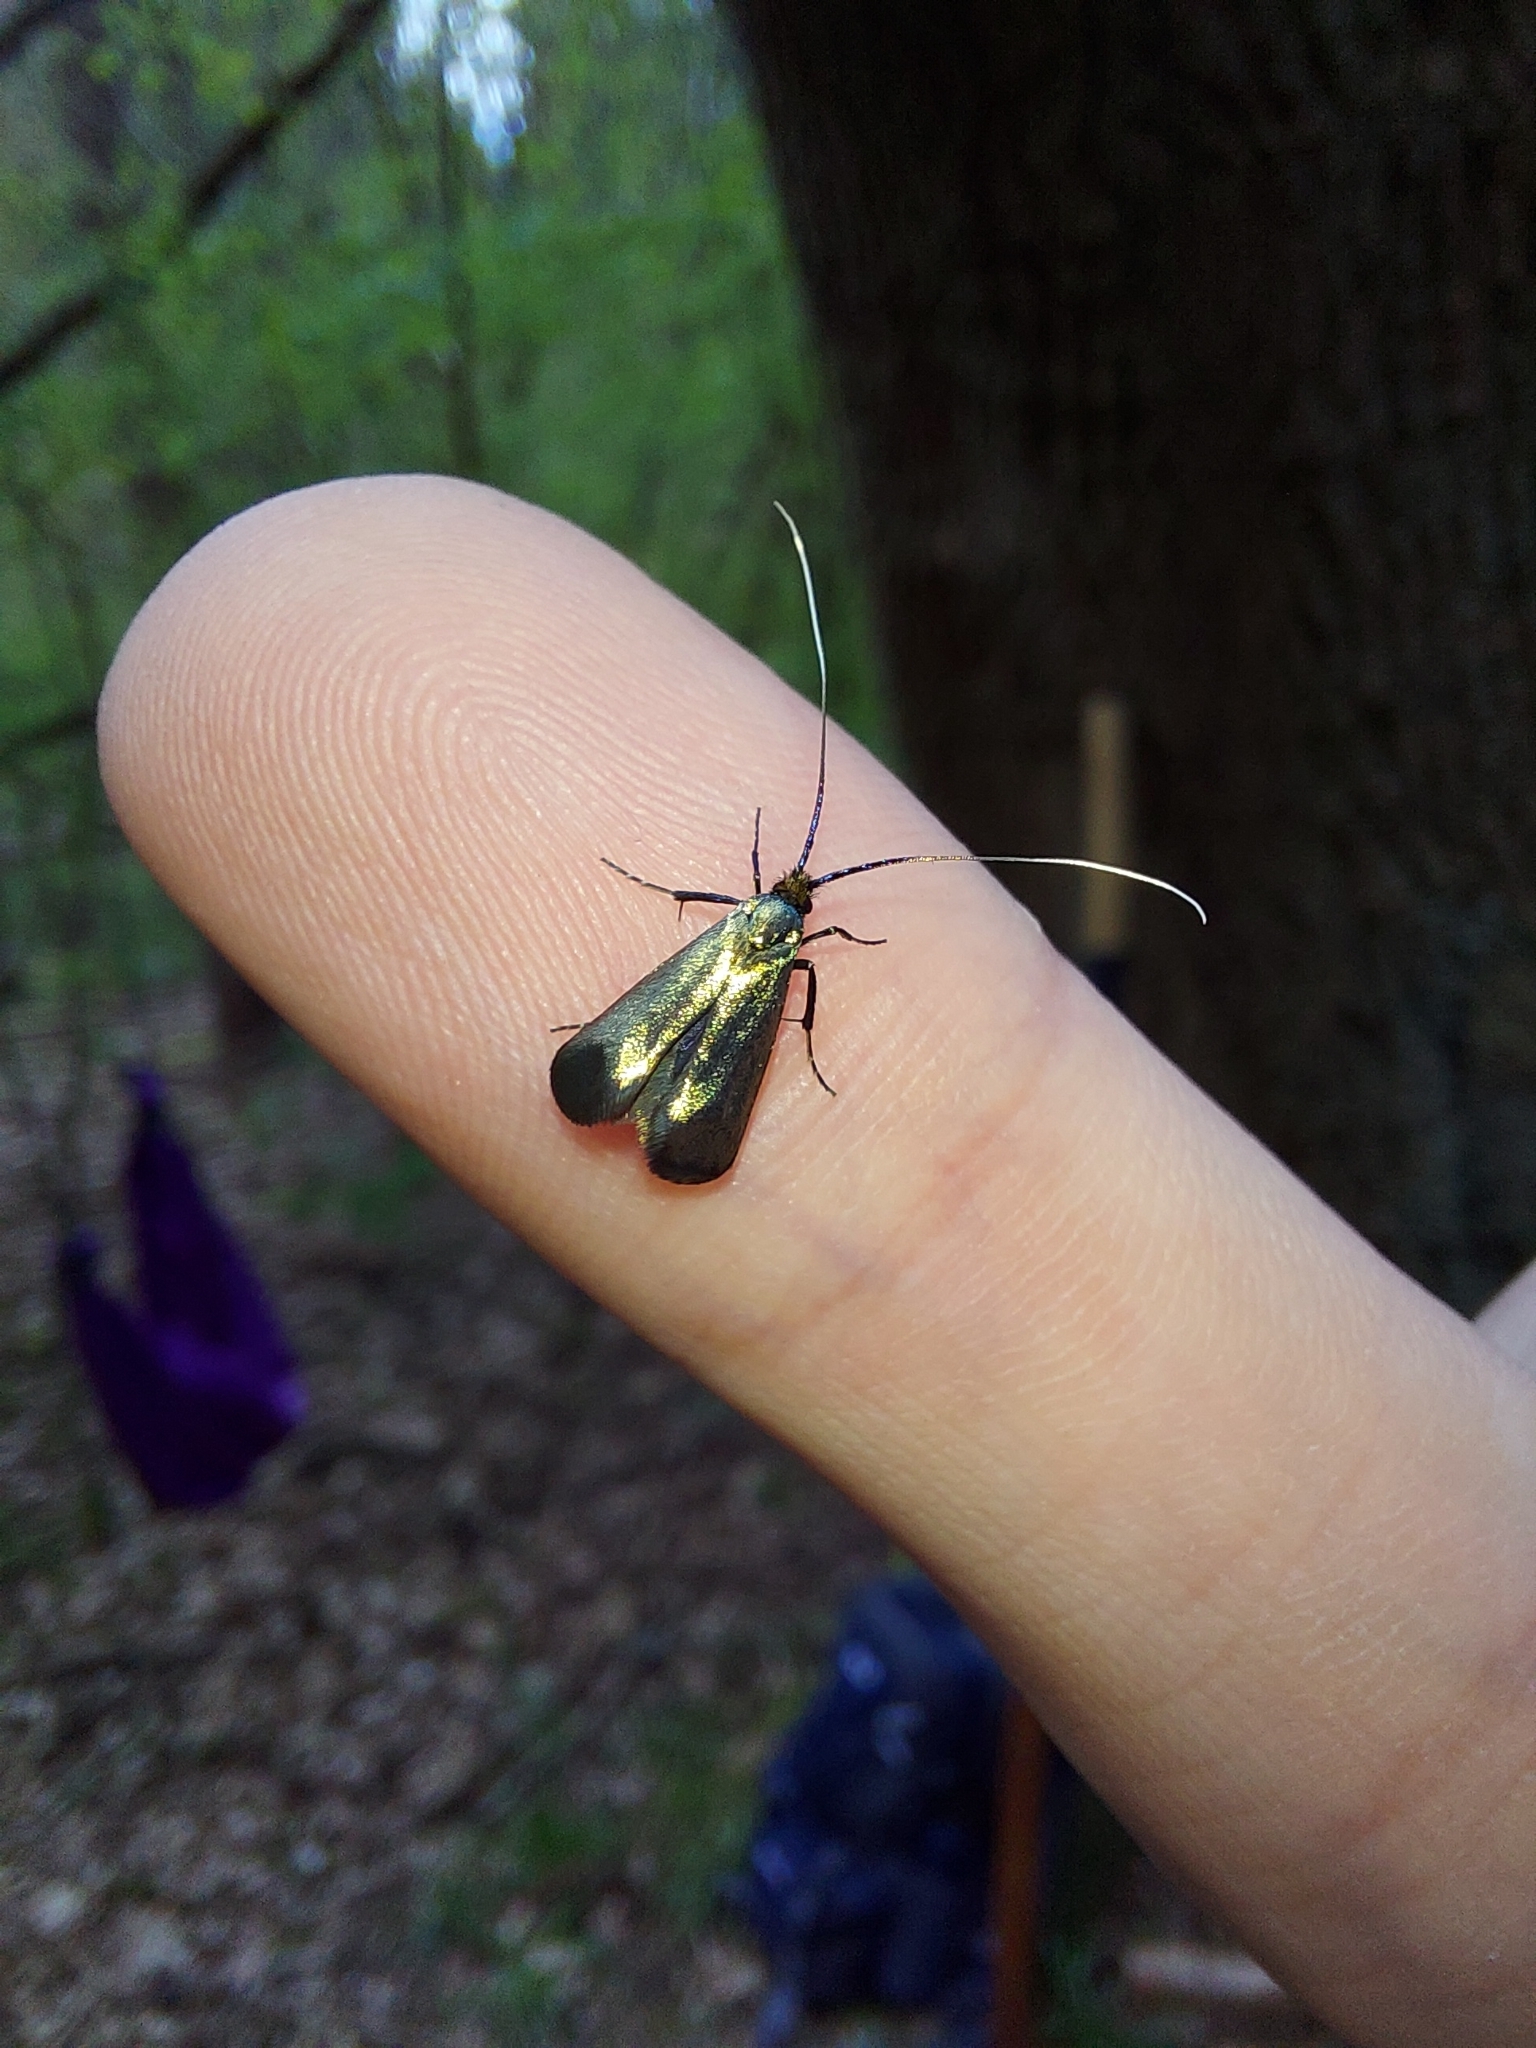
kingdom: Animalia
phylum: Arthropoda
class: Insecta
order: Lepidoptera
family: Adelidae
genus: Adela
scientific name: Adela viridella
